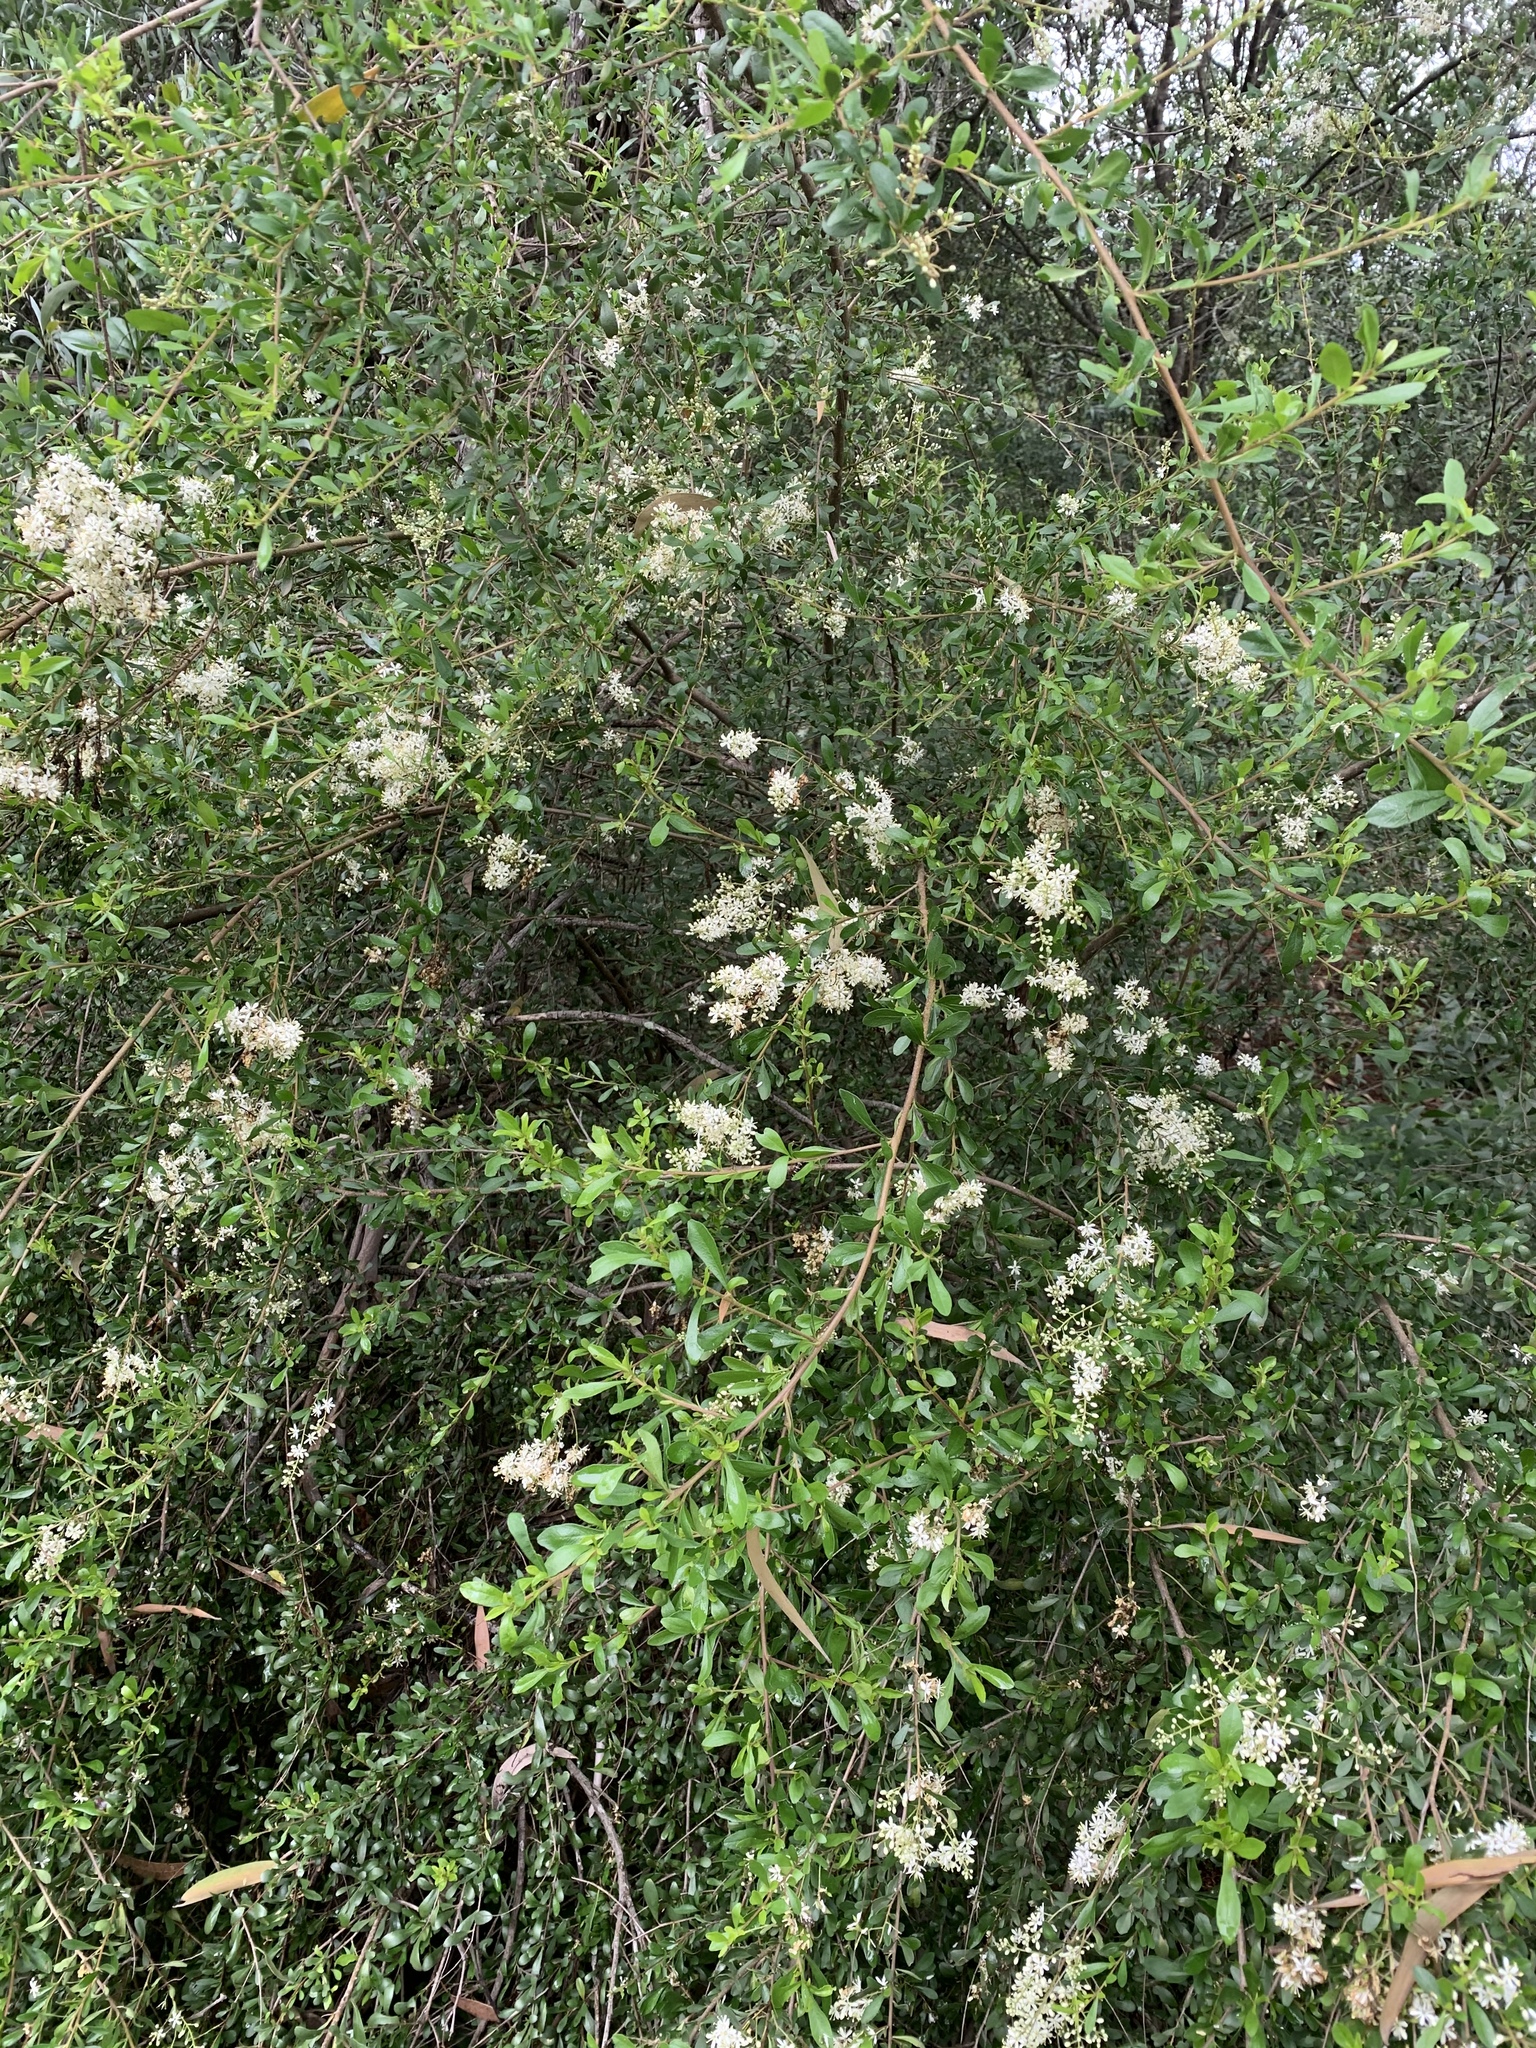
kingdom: Plantae
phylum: Tracheophyta
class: Magnoliopsida
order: Apiales
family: Pittosporaceae
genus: Bursaria
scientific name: Bursaria spinosa
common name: Australian blackthorn
